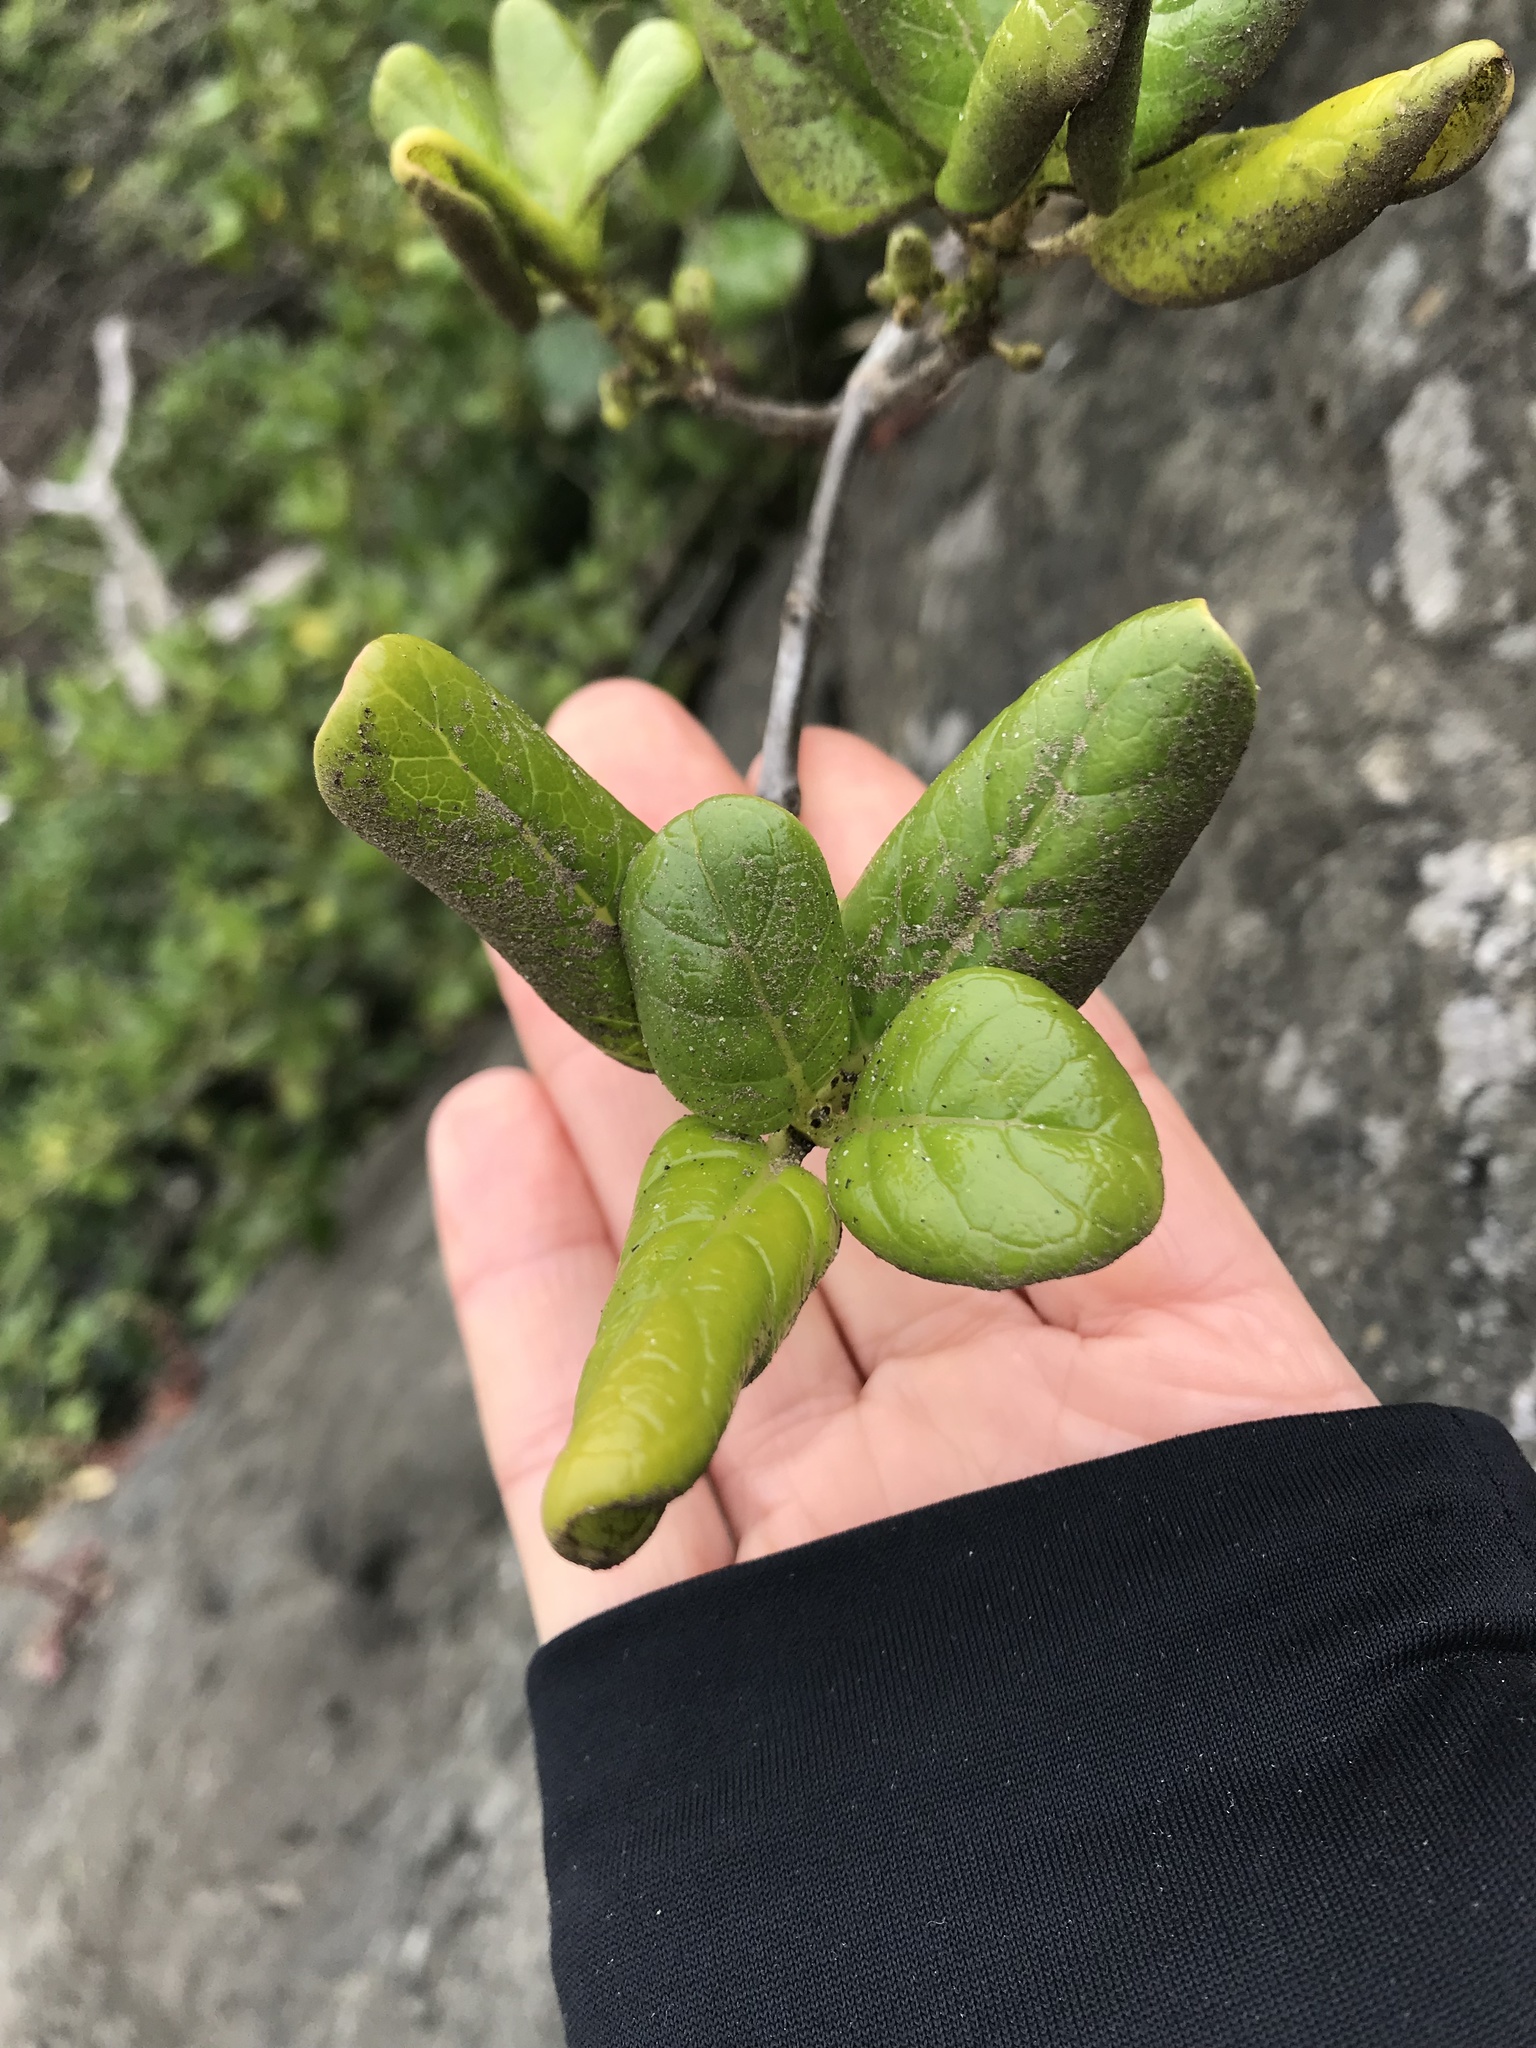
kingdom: Plantae
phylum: Tracheophyta
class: Magnoliopsida
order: Gentianales
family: Rubiaceae
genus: Coprosma
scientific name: Coprosma repens
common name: Tree bedstraw
